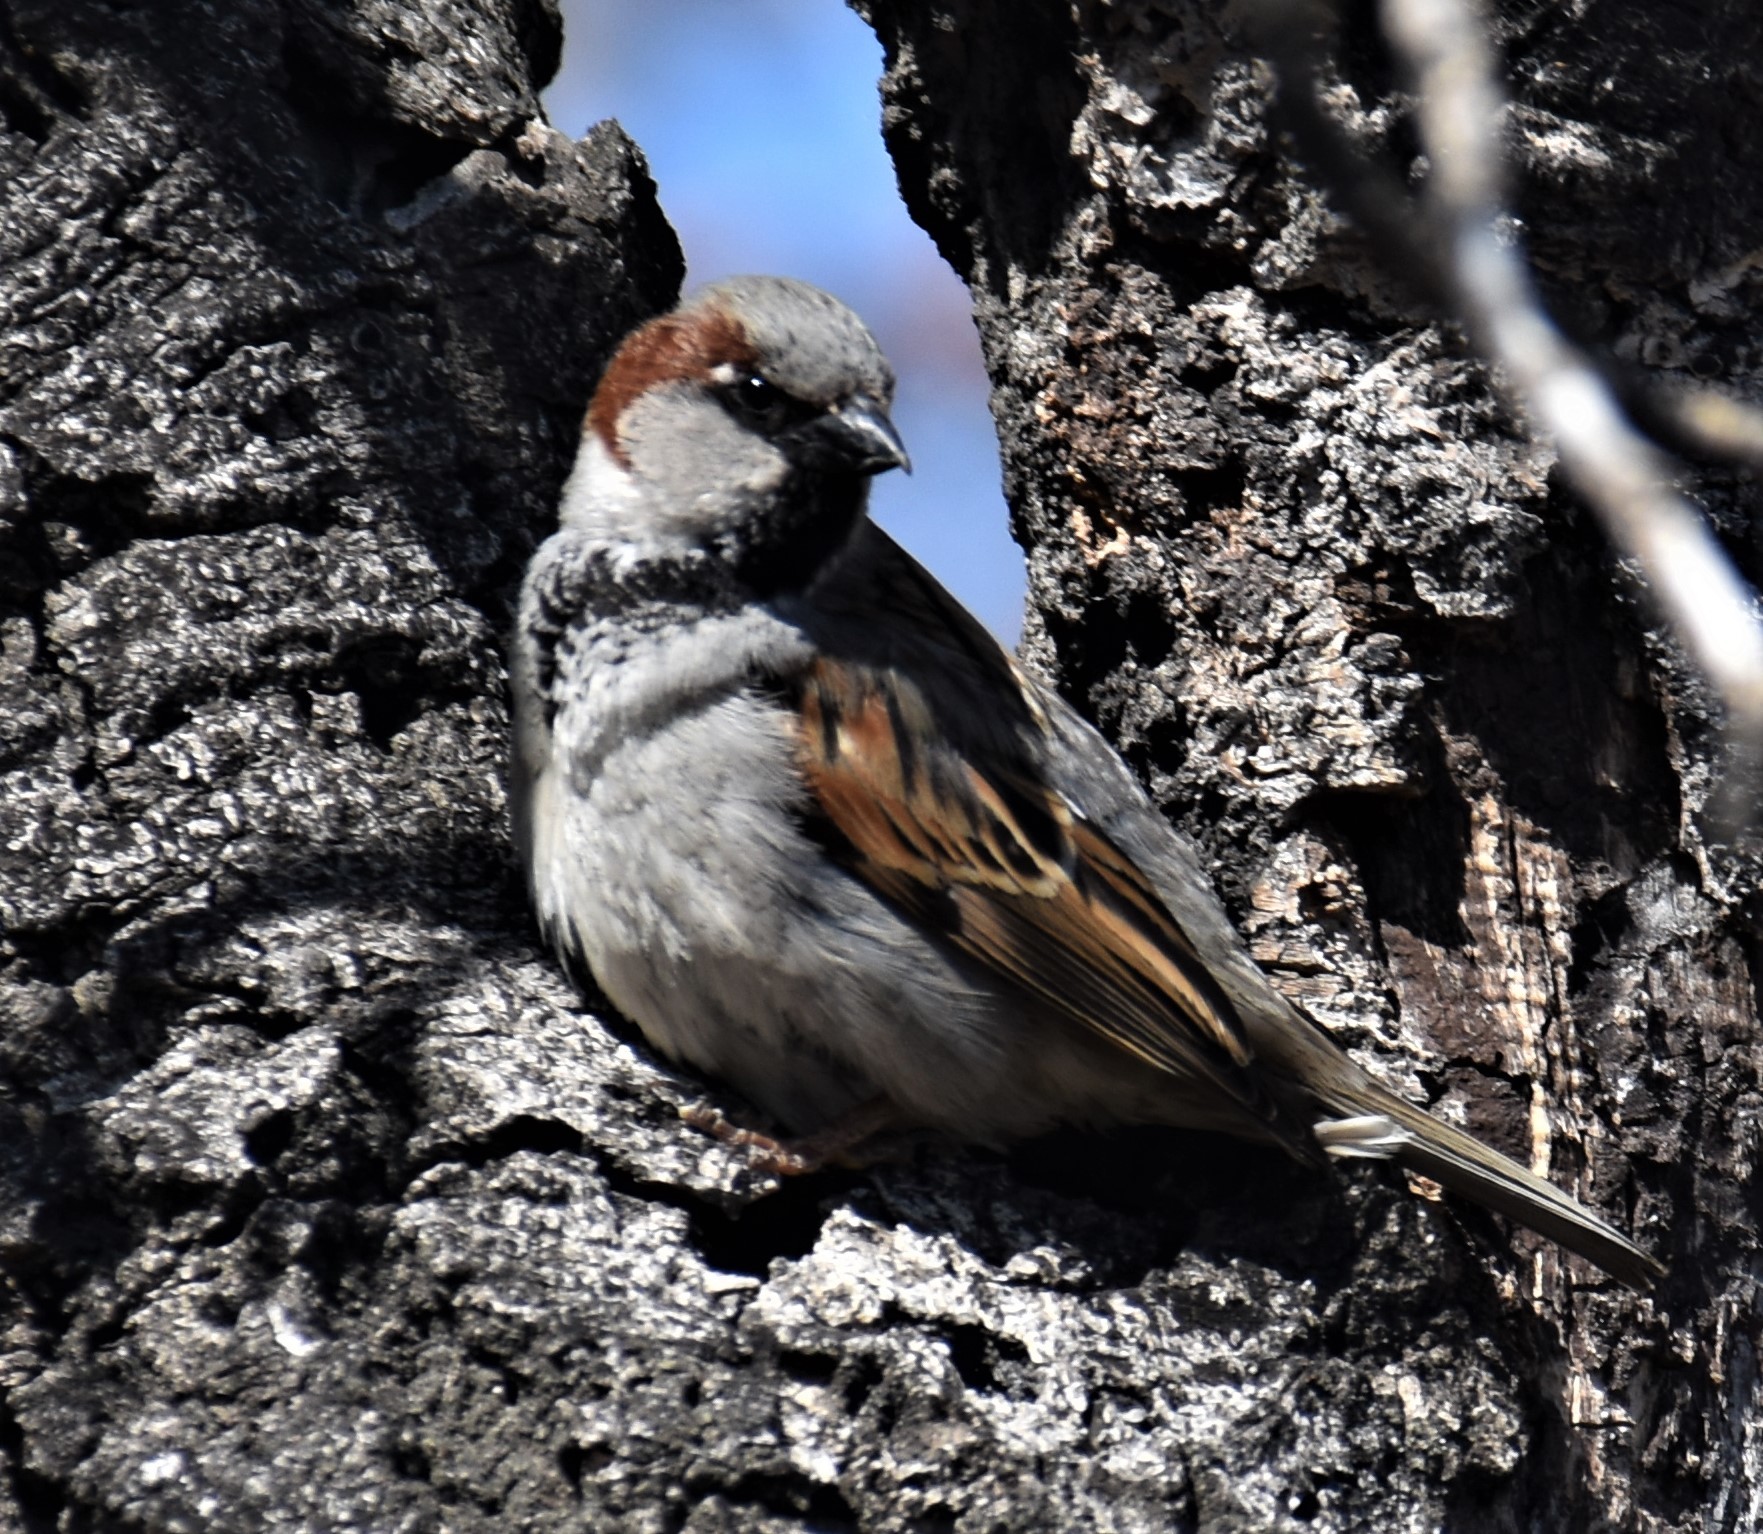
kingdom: Animalia
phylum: Chordata
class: Aves
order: Passeriformes
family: Passeridae
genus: Passer
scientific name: Passer domesticus
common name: House sparrow
